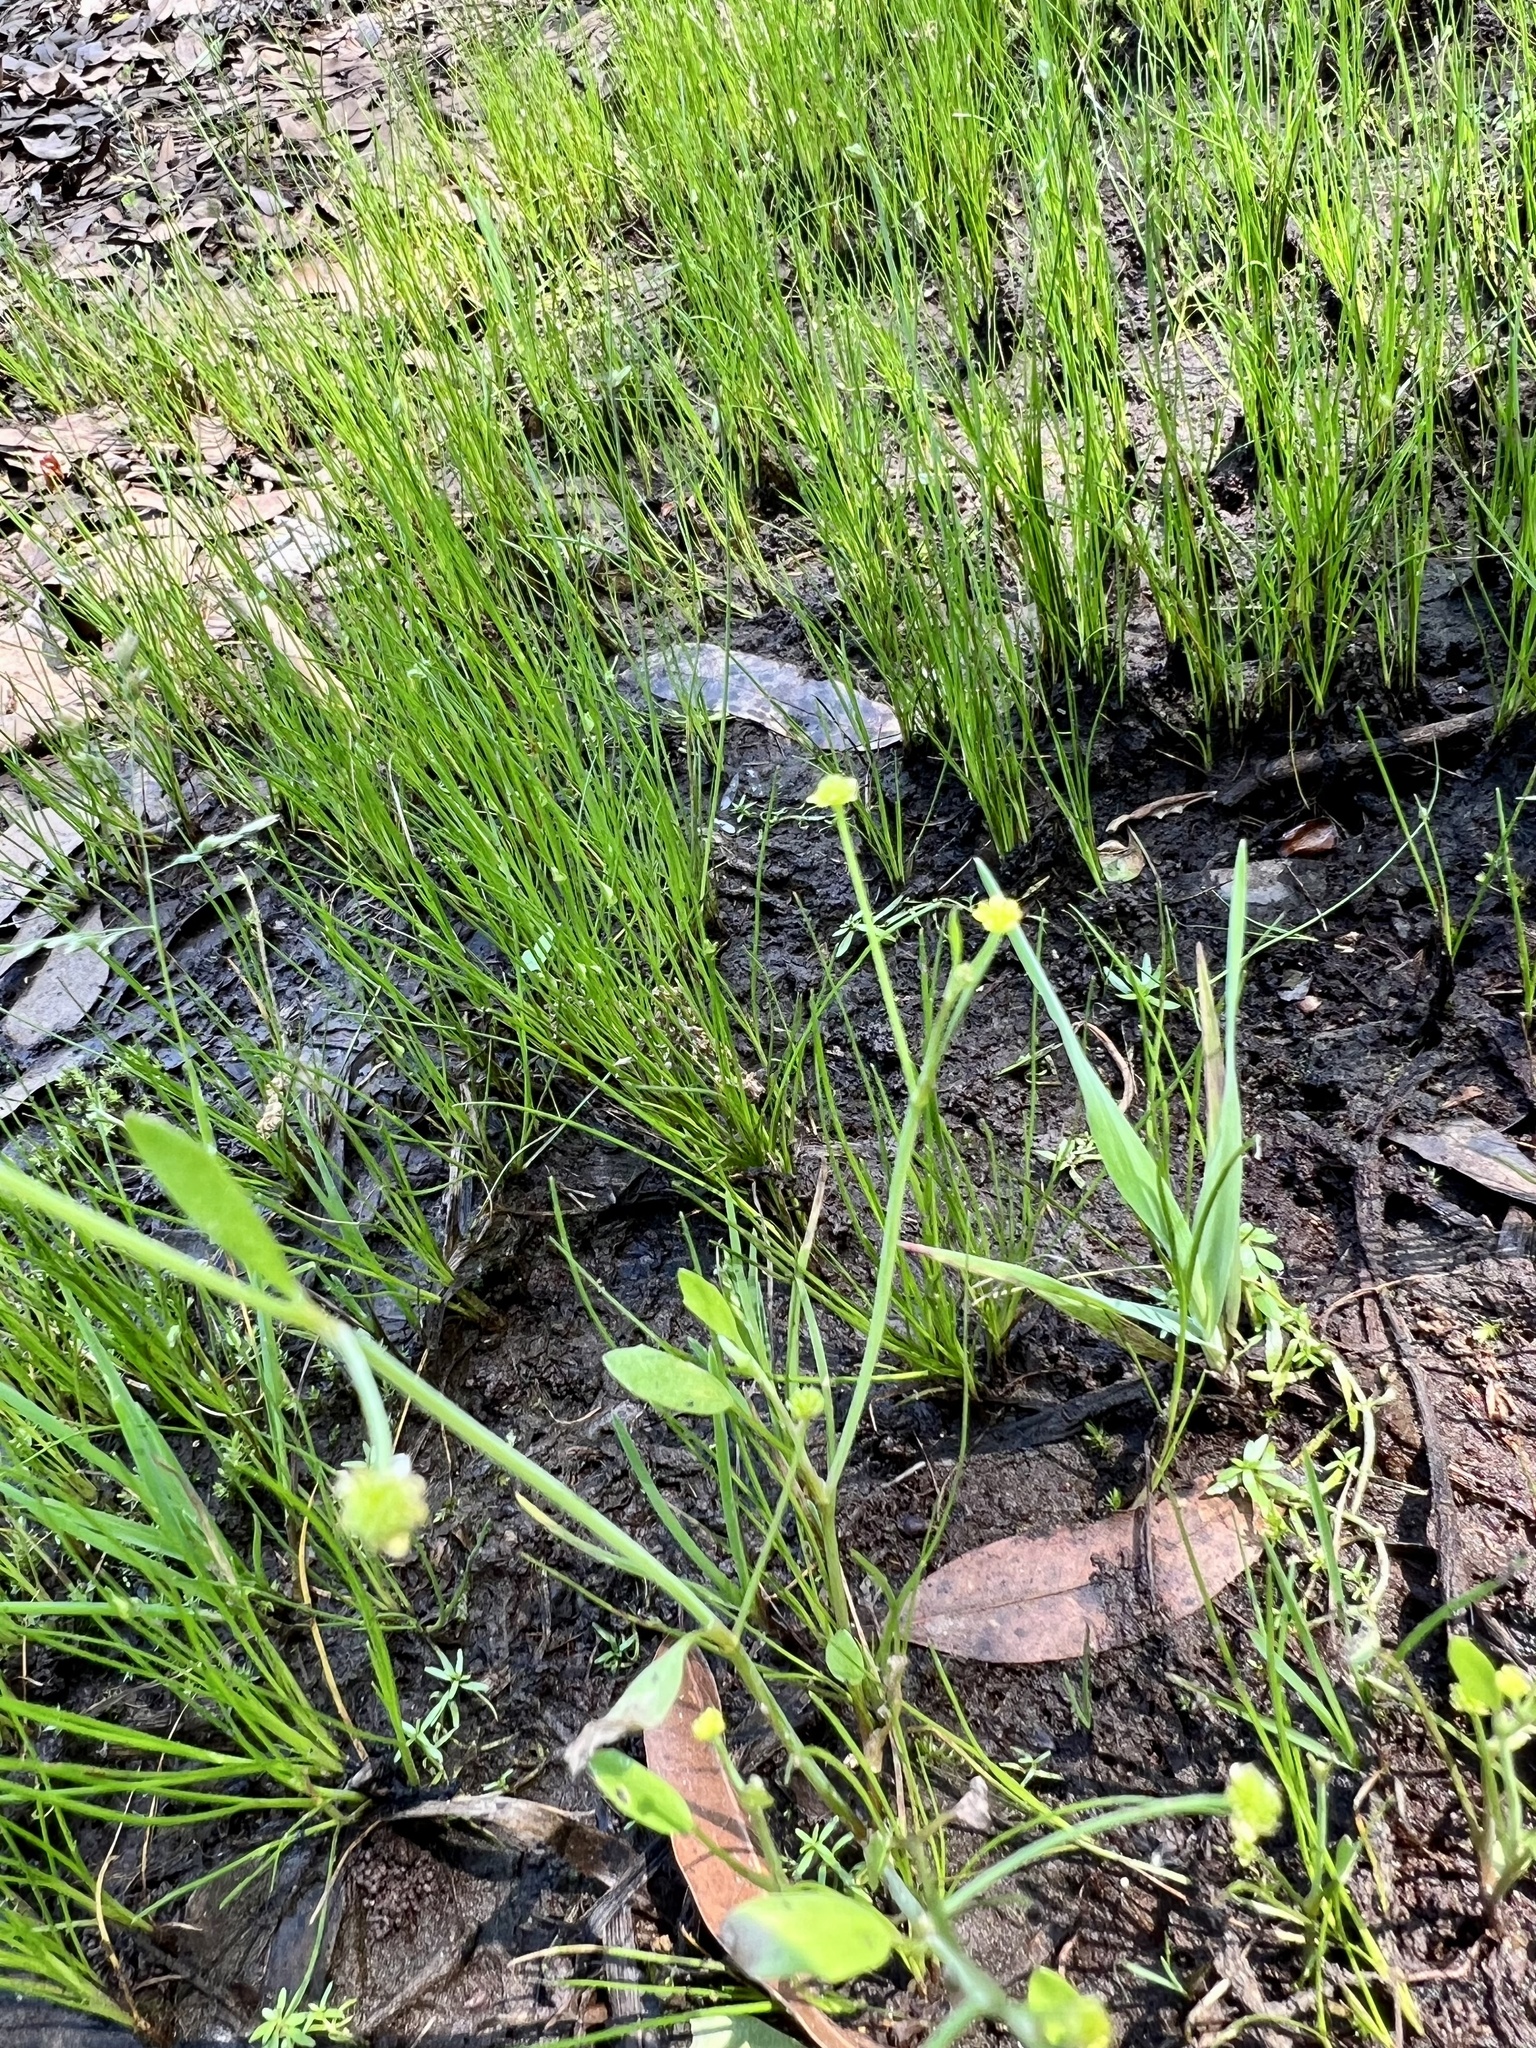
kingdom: Plantae
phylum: Tracheophyta
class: Magnoliopsida
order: Ranunculales
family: Ranunculaceae
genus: Ranunculus
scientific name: Ranunculus pusillus
